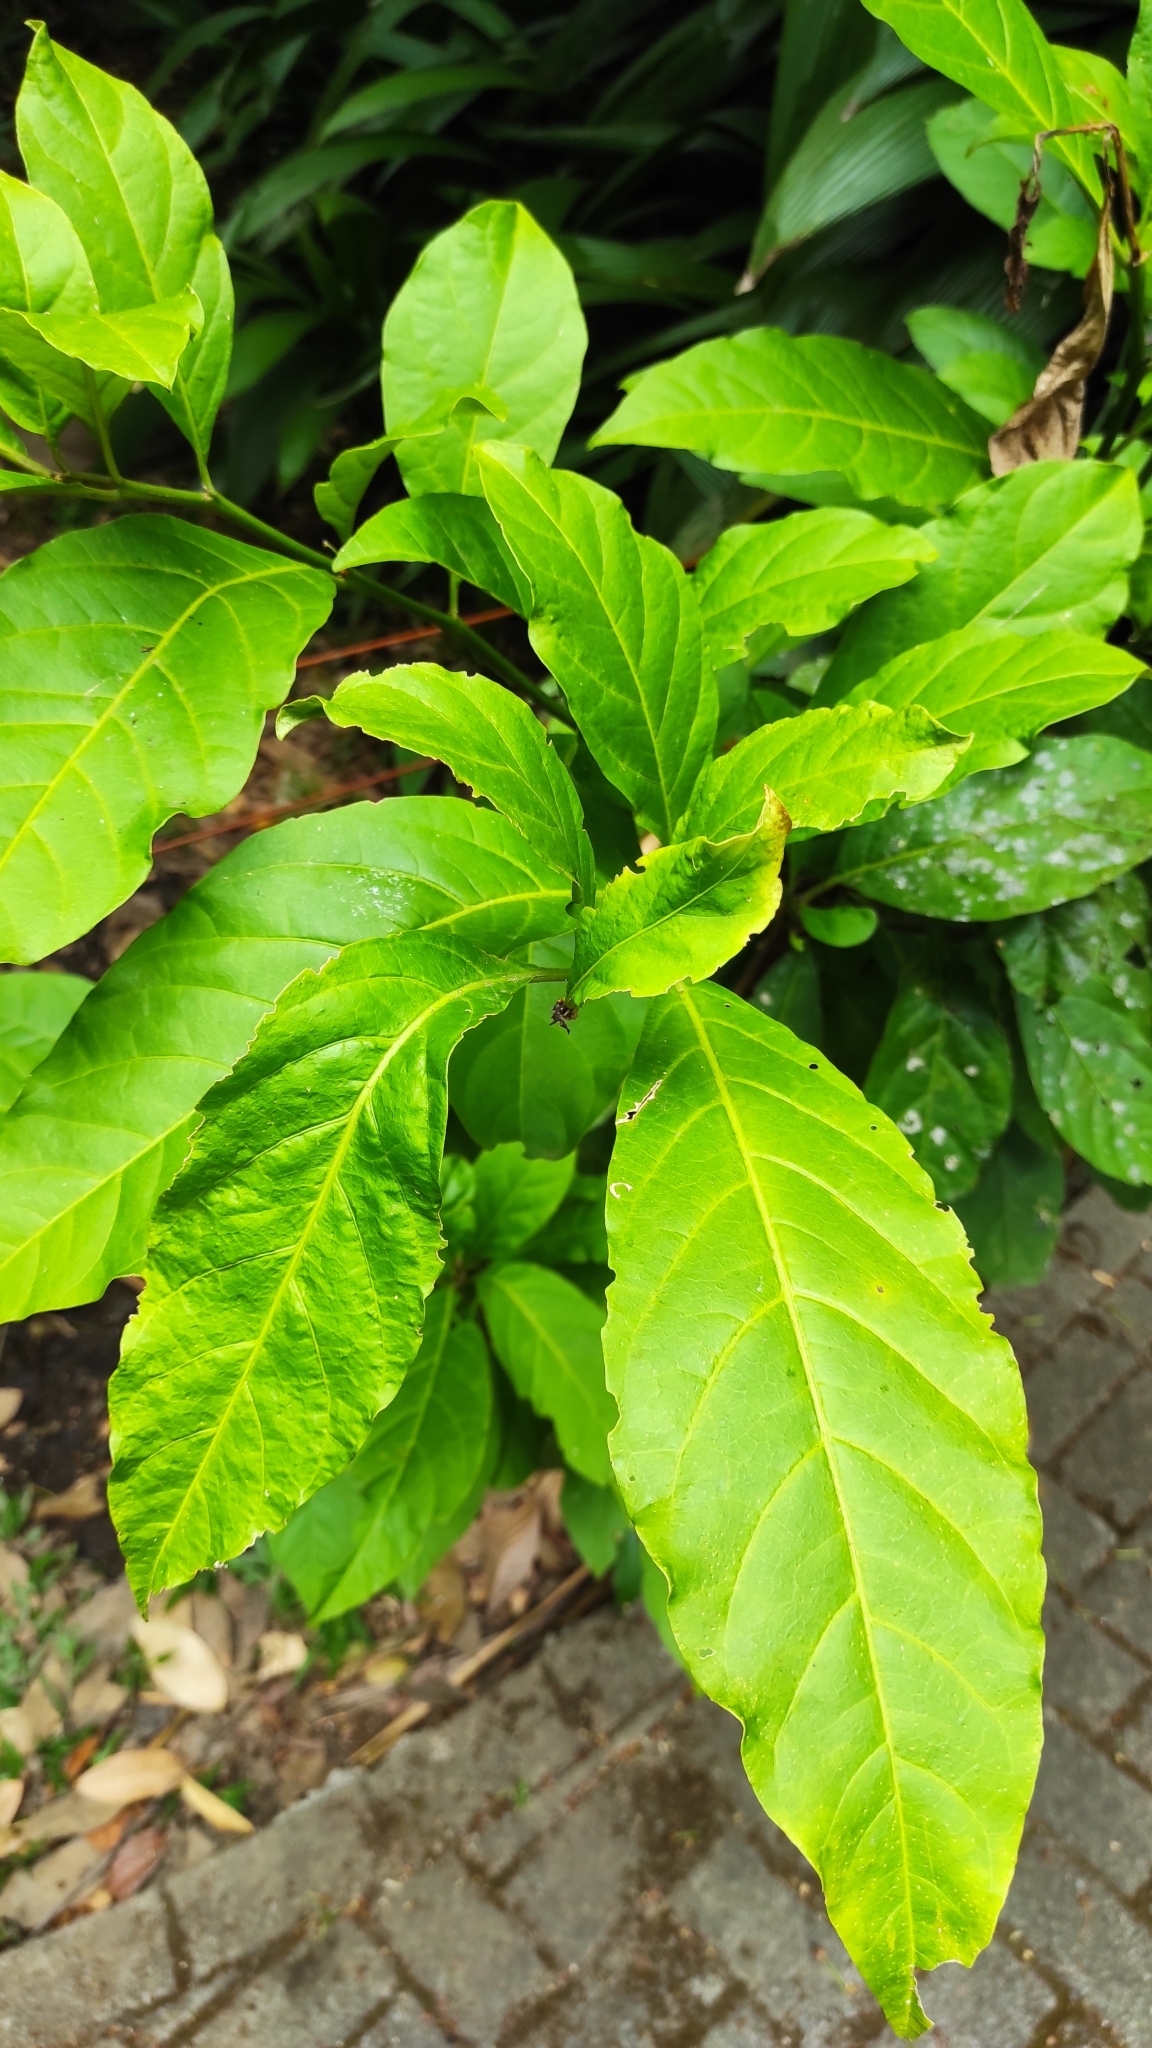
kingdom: Plantae
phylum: Tracheophyta
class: Magnoliopsida
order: Solanales
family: Solanaceae
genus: Iochroma
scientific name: Iochroma arborescens
